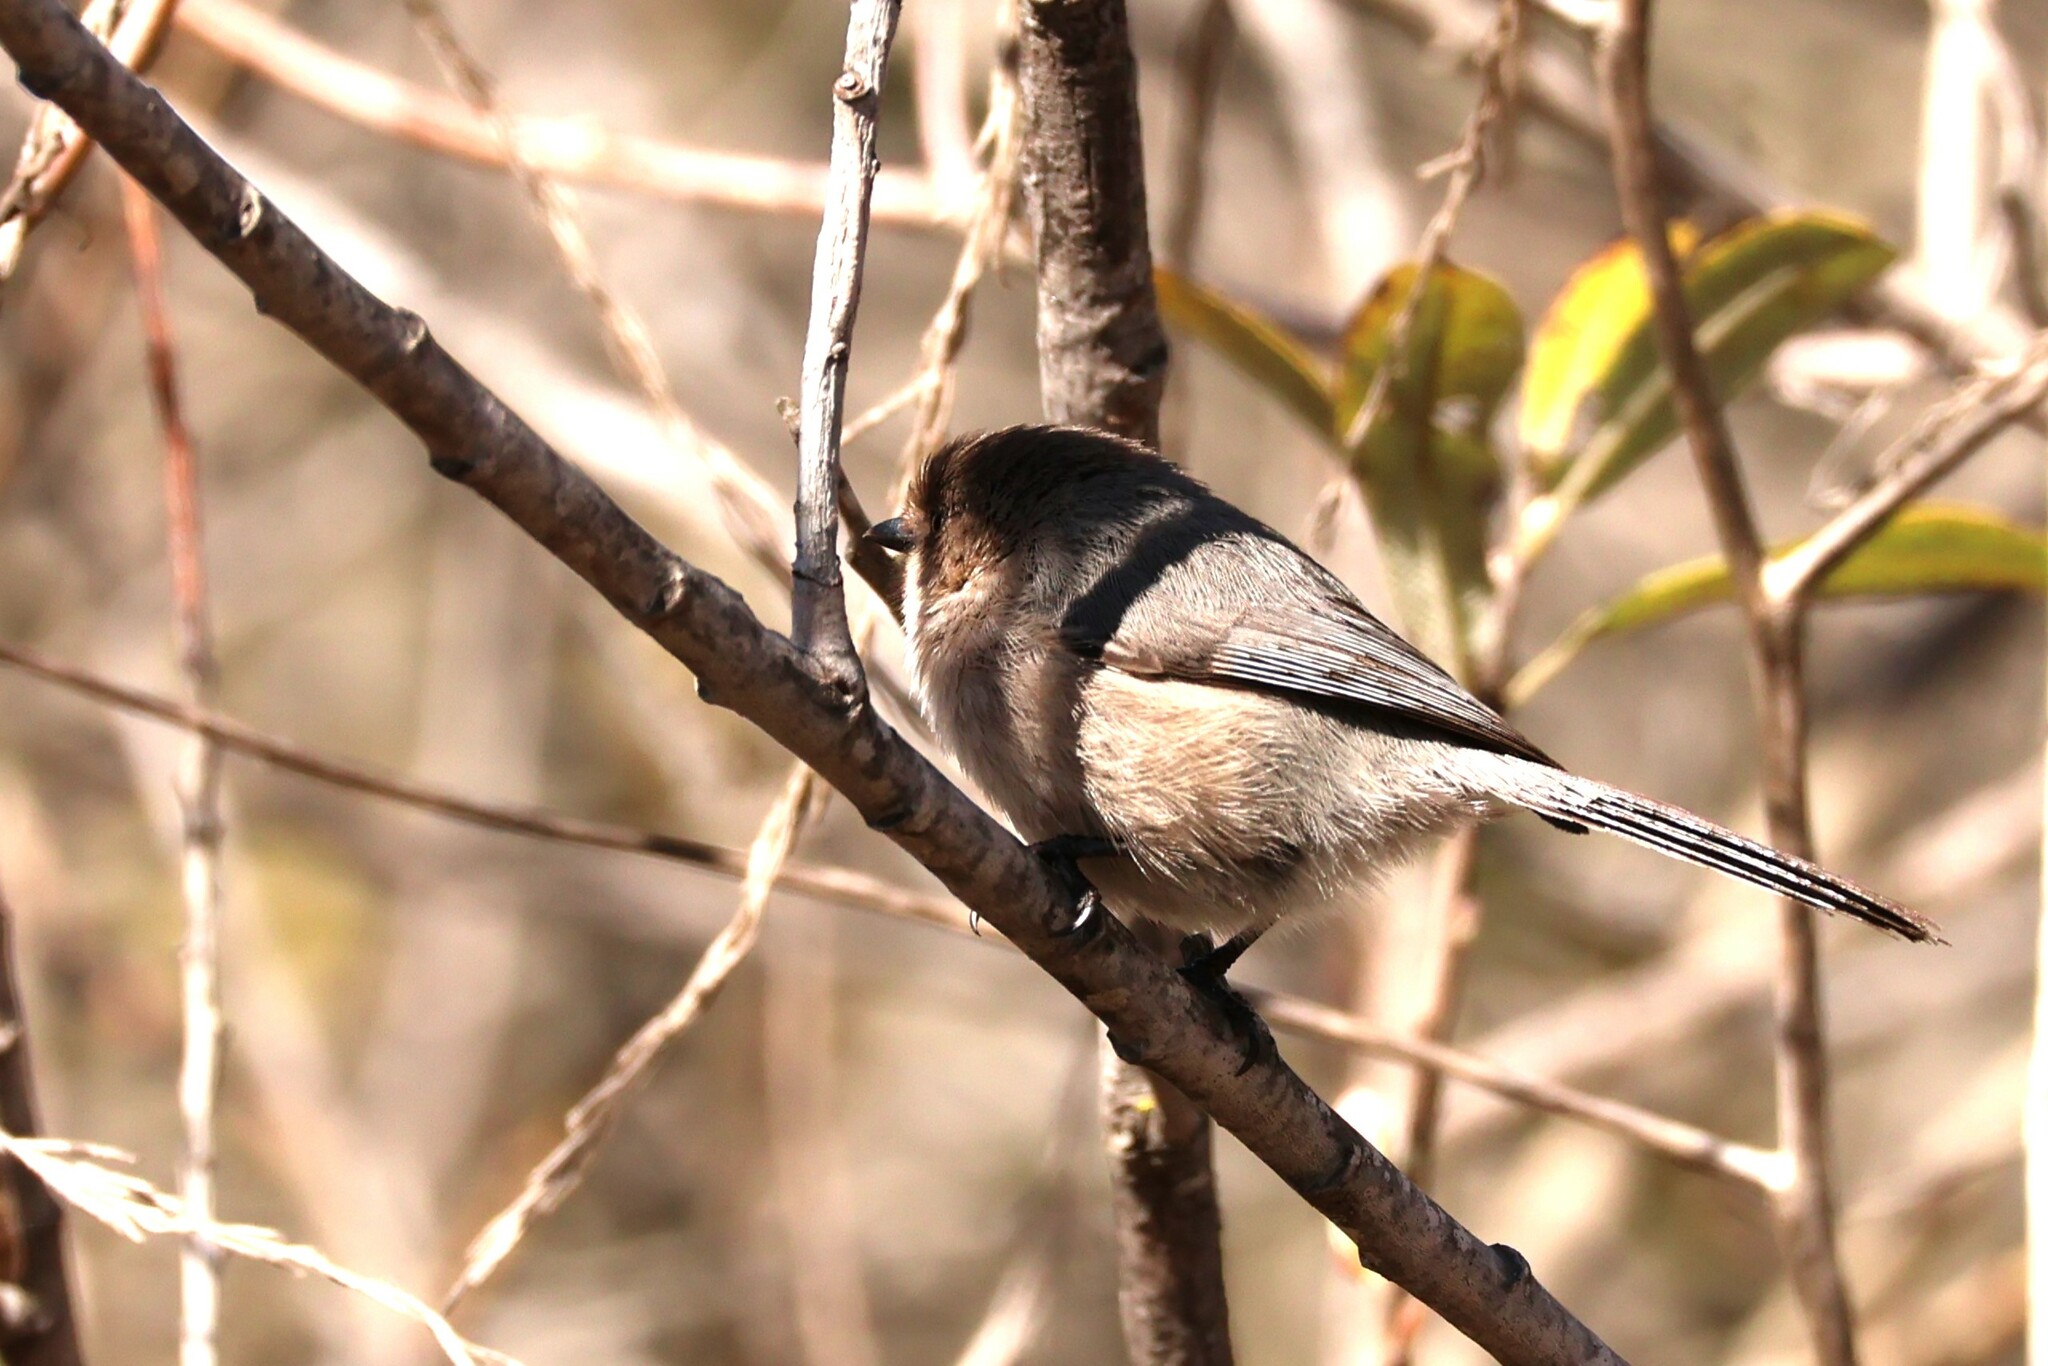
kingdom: Animalia
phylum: Chordata
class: Aves
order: Passeriformes
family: Aegithalidae
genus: Psaltriparus
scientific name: Psaltriparus minimus
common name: American bushtit
